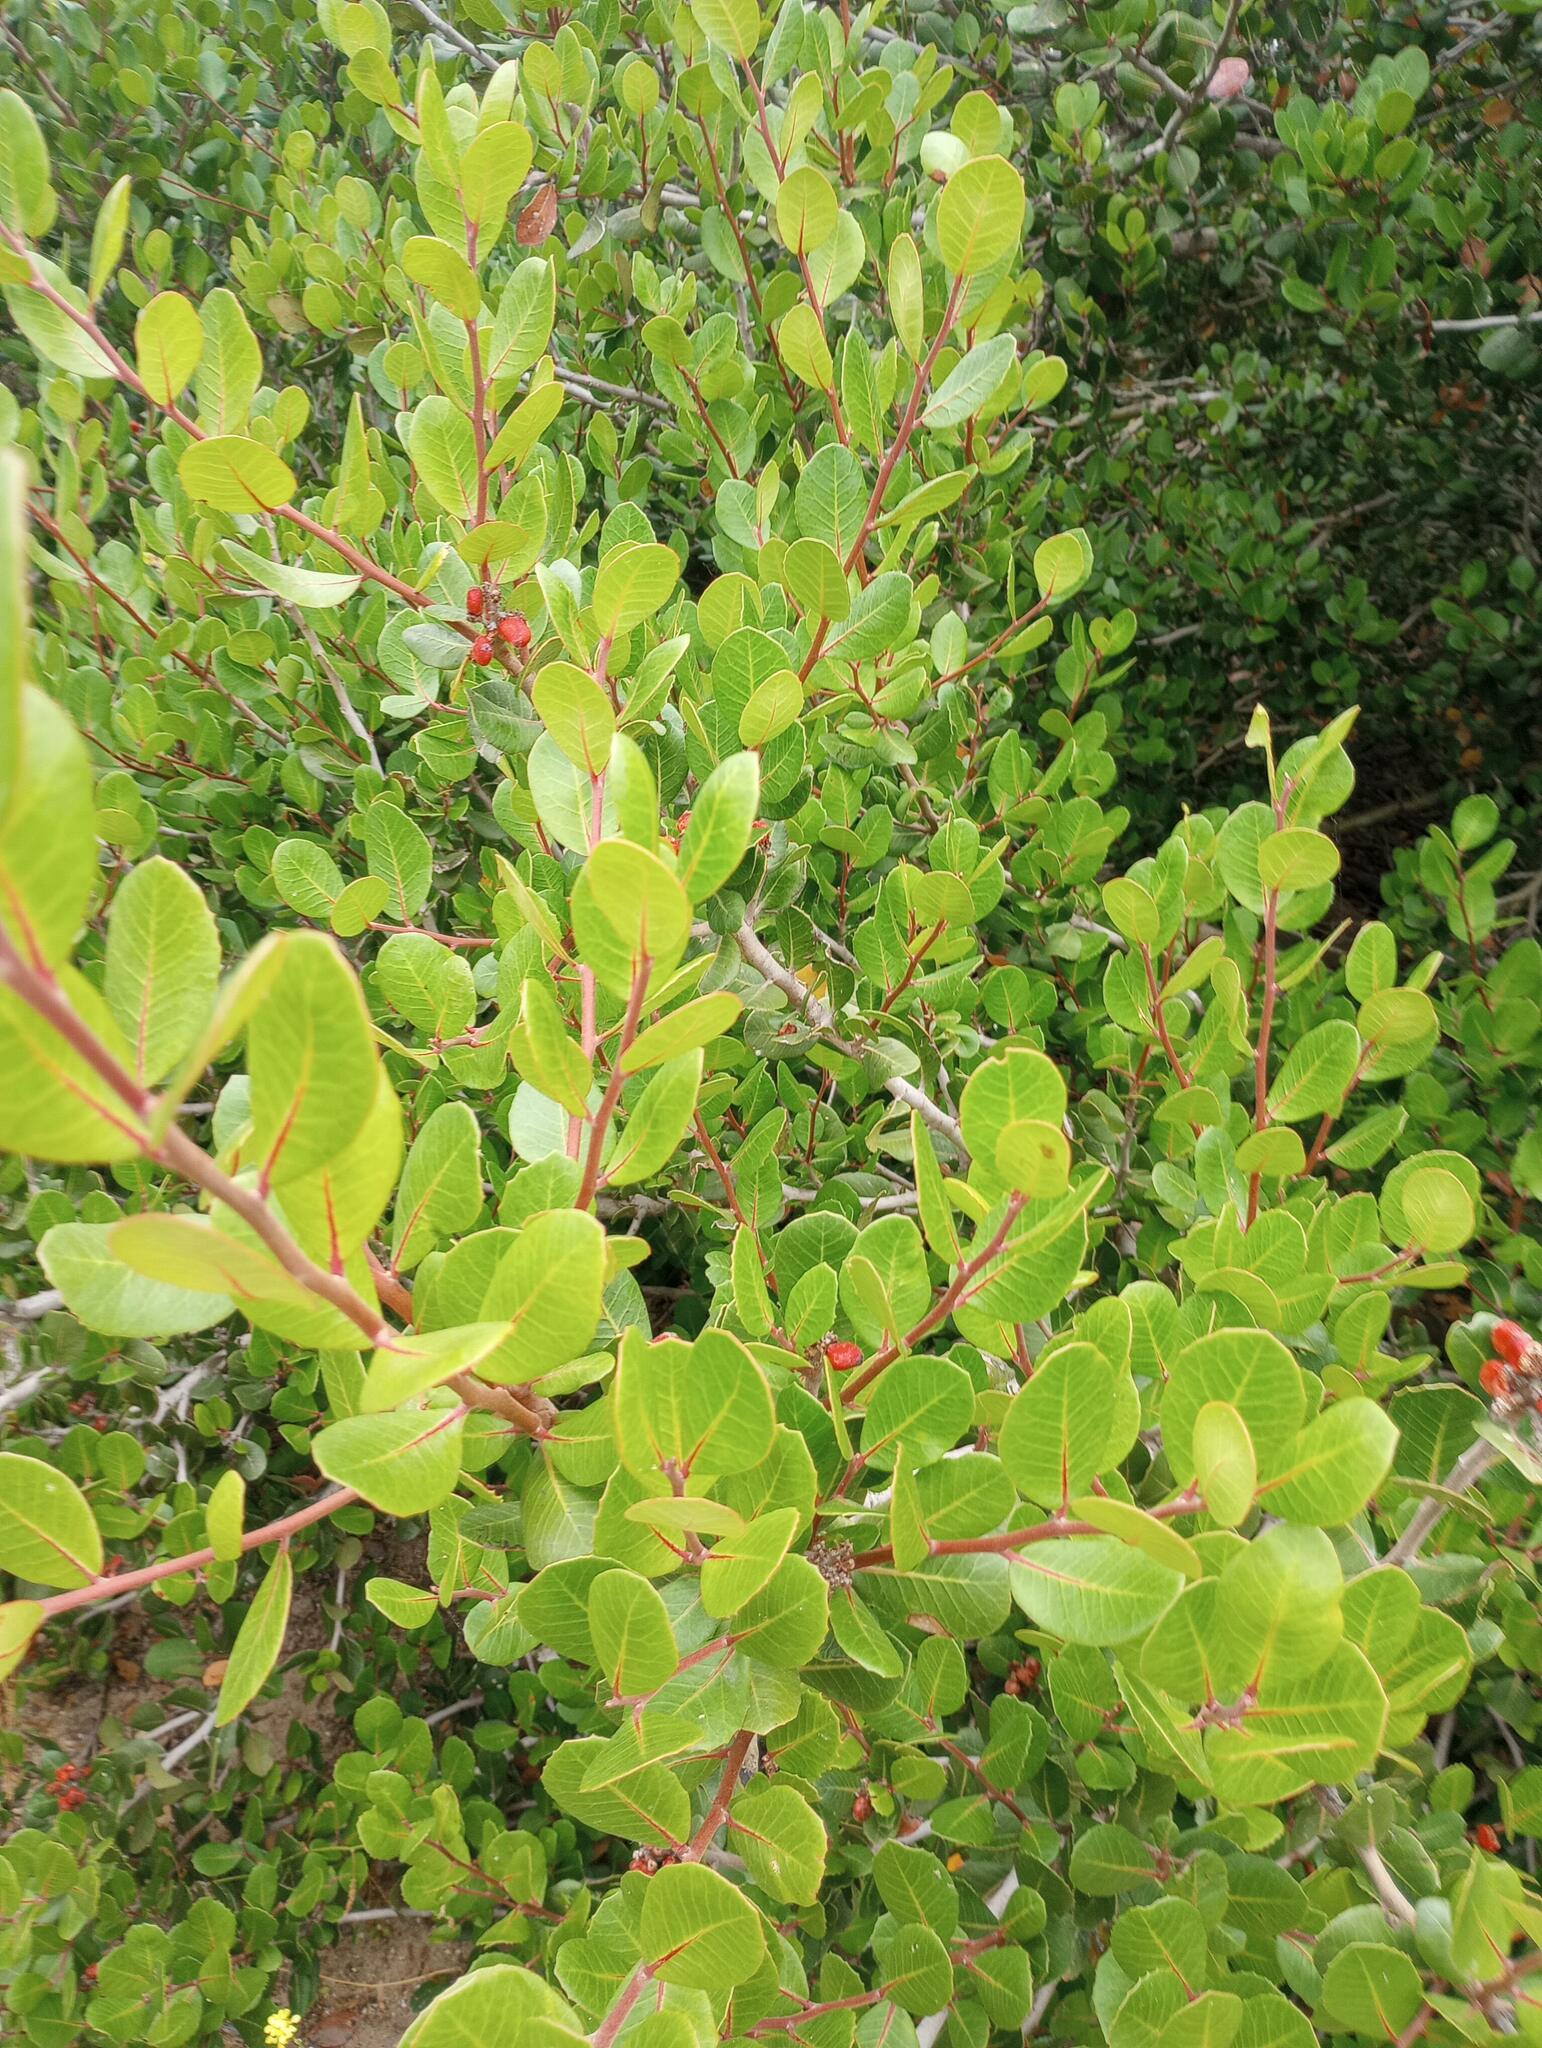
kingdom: Plantae
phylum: Tracheophyta
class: Magnoliopsida
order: Sapindales
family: Anacardiaceae
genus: Rhus
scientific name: Rhus integrifolia
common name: Lemonade sumac
